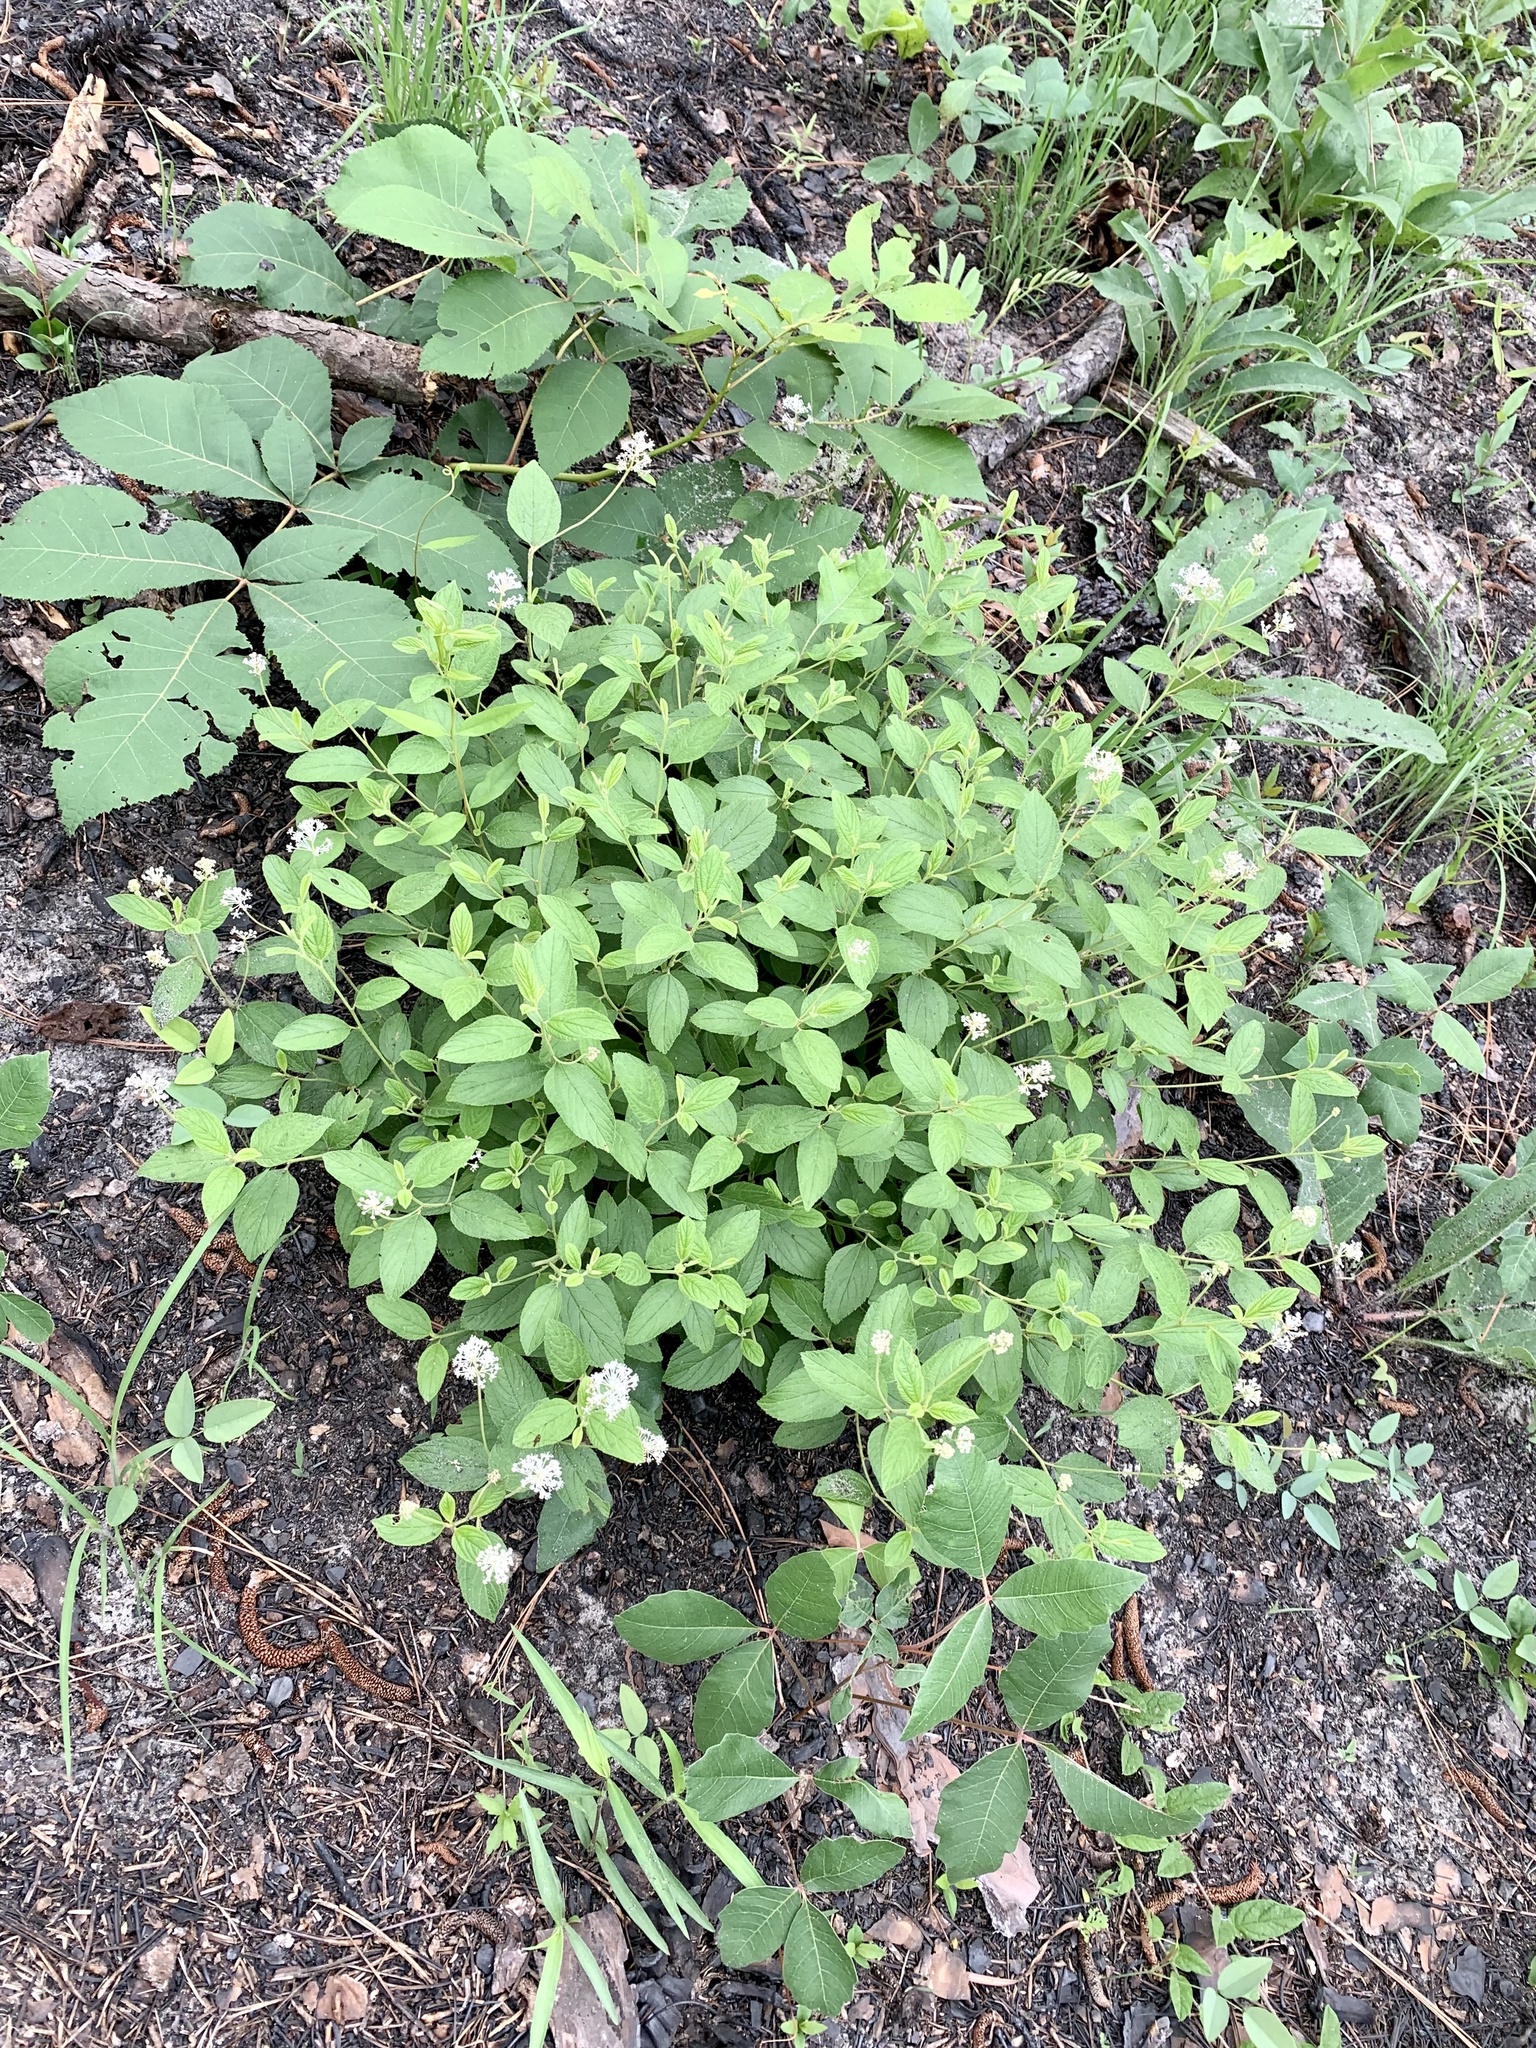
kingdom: Plantae
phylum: Tracheophyta
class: Magnoliopsida
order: Rosales
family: Rhamnaceae
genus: Ceanothus
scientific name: Ceanothus americanus
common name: Redroot
